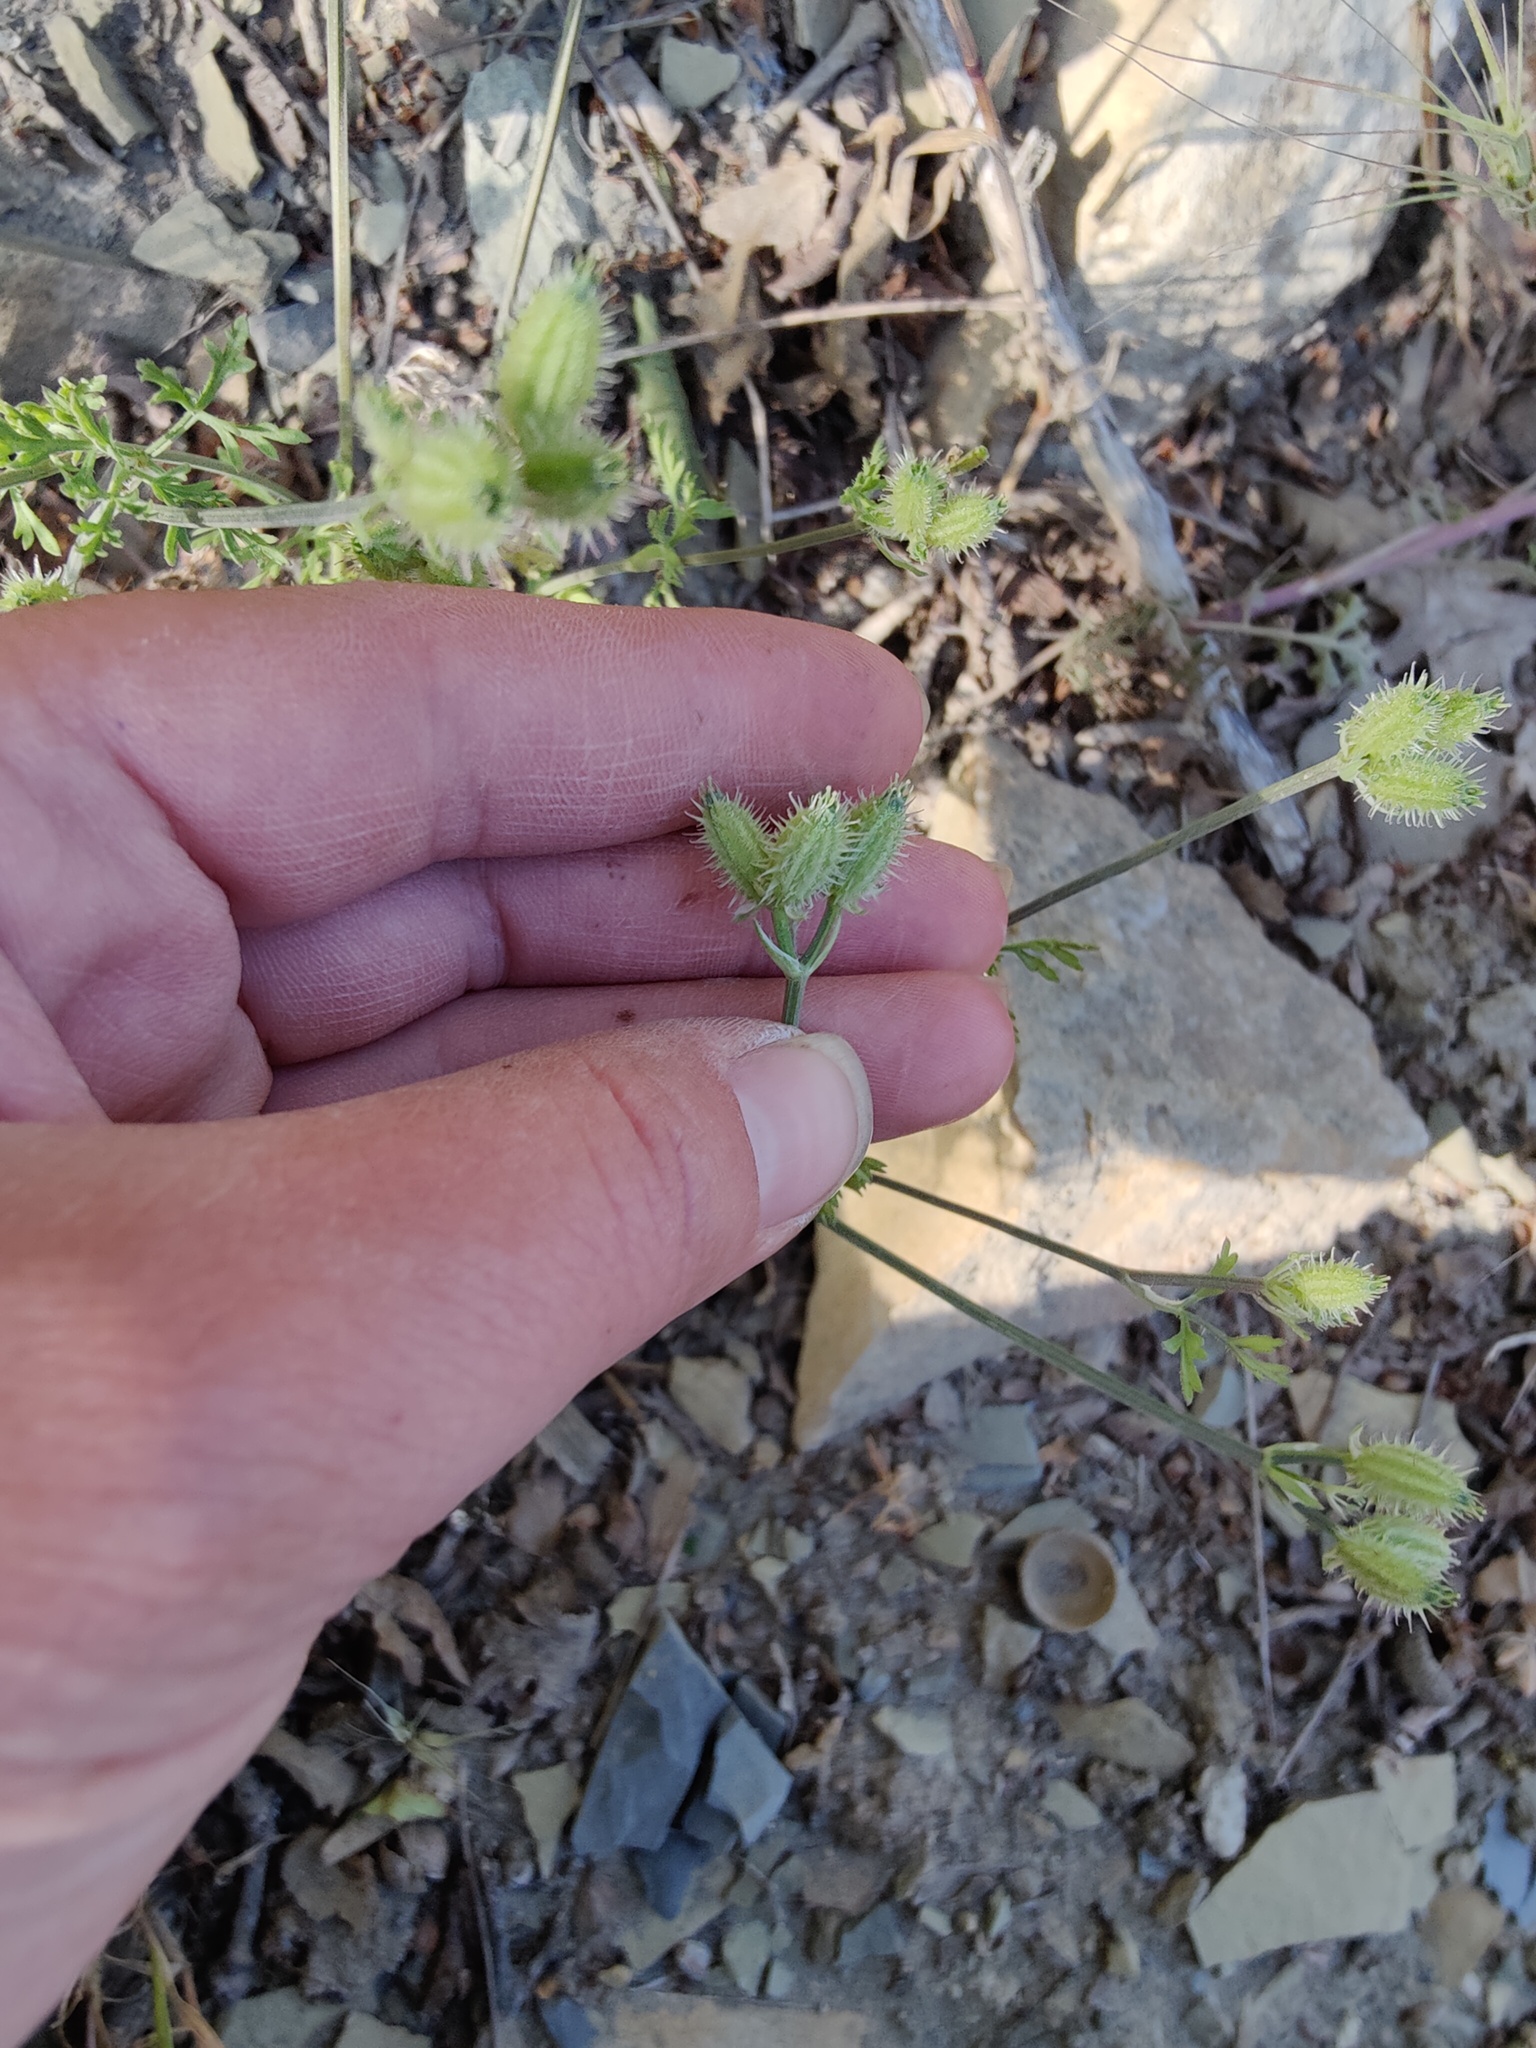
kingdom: Plantae
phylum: Tracheophyta
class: Magnoliopsida
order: Apiales
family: Apiaceae
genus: Orlaya
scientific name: Orlaya daucoides
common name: Flat-fruit orlaya
